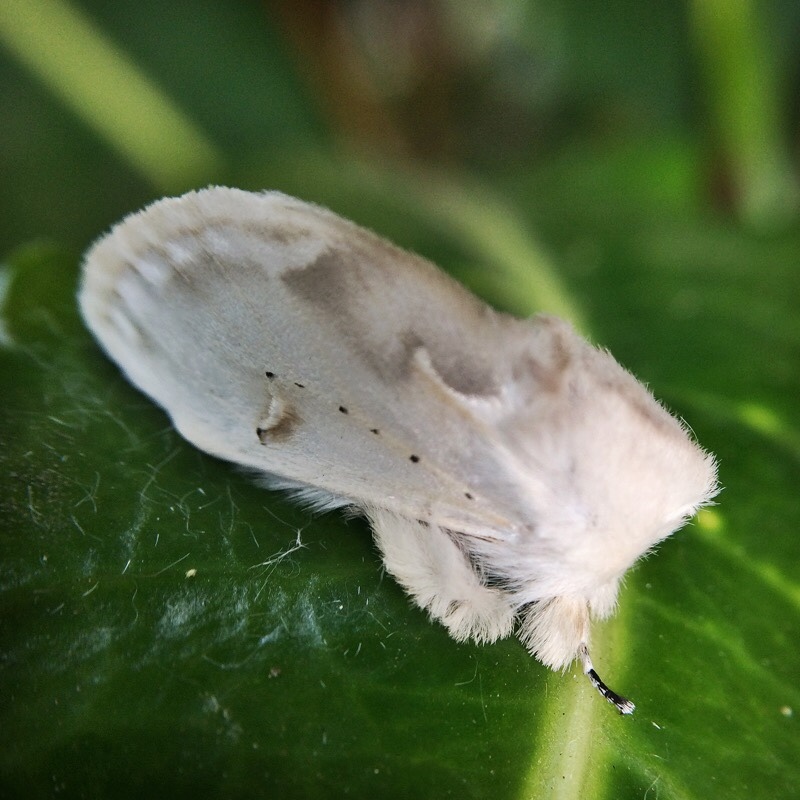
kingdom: Animalia
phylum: Arthropoda
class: Insecta
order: Lepidoptera
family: Erebidae
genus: Naroma
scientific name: Naroma varipes
